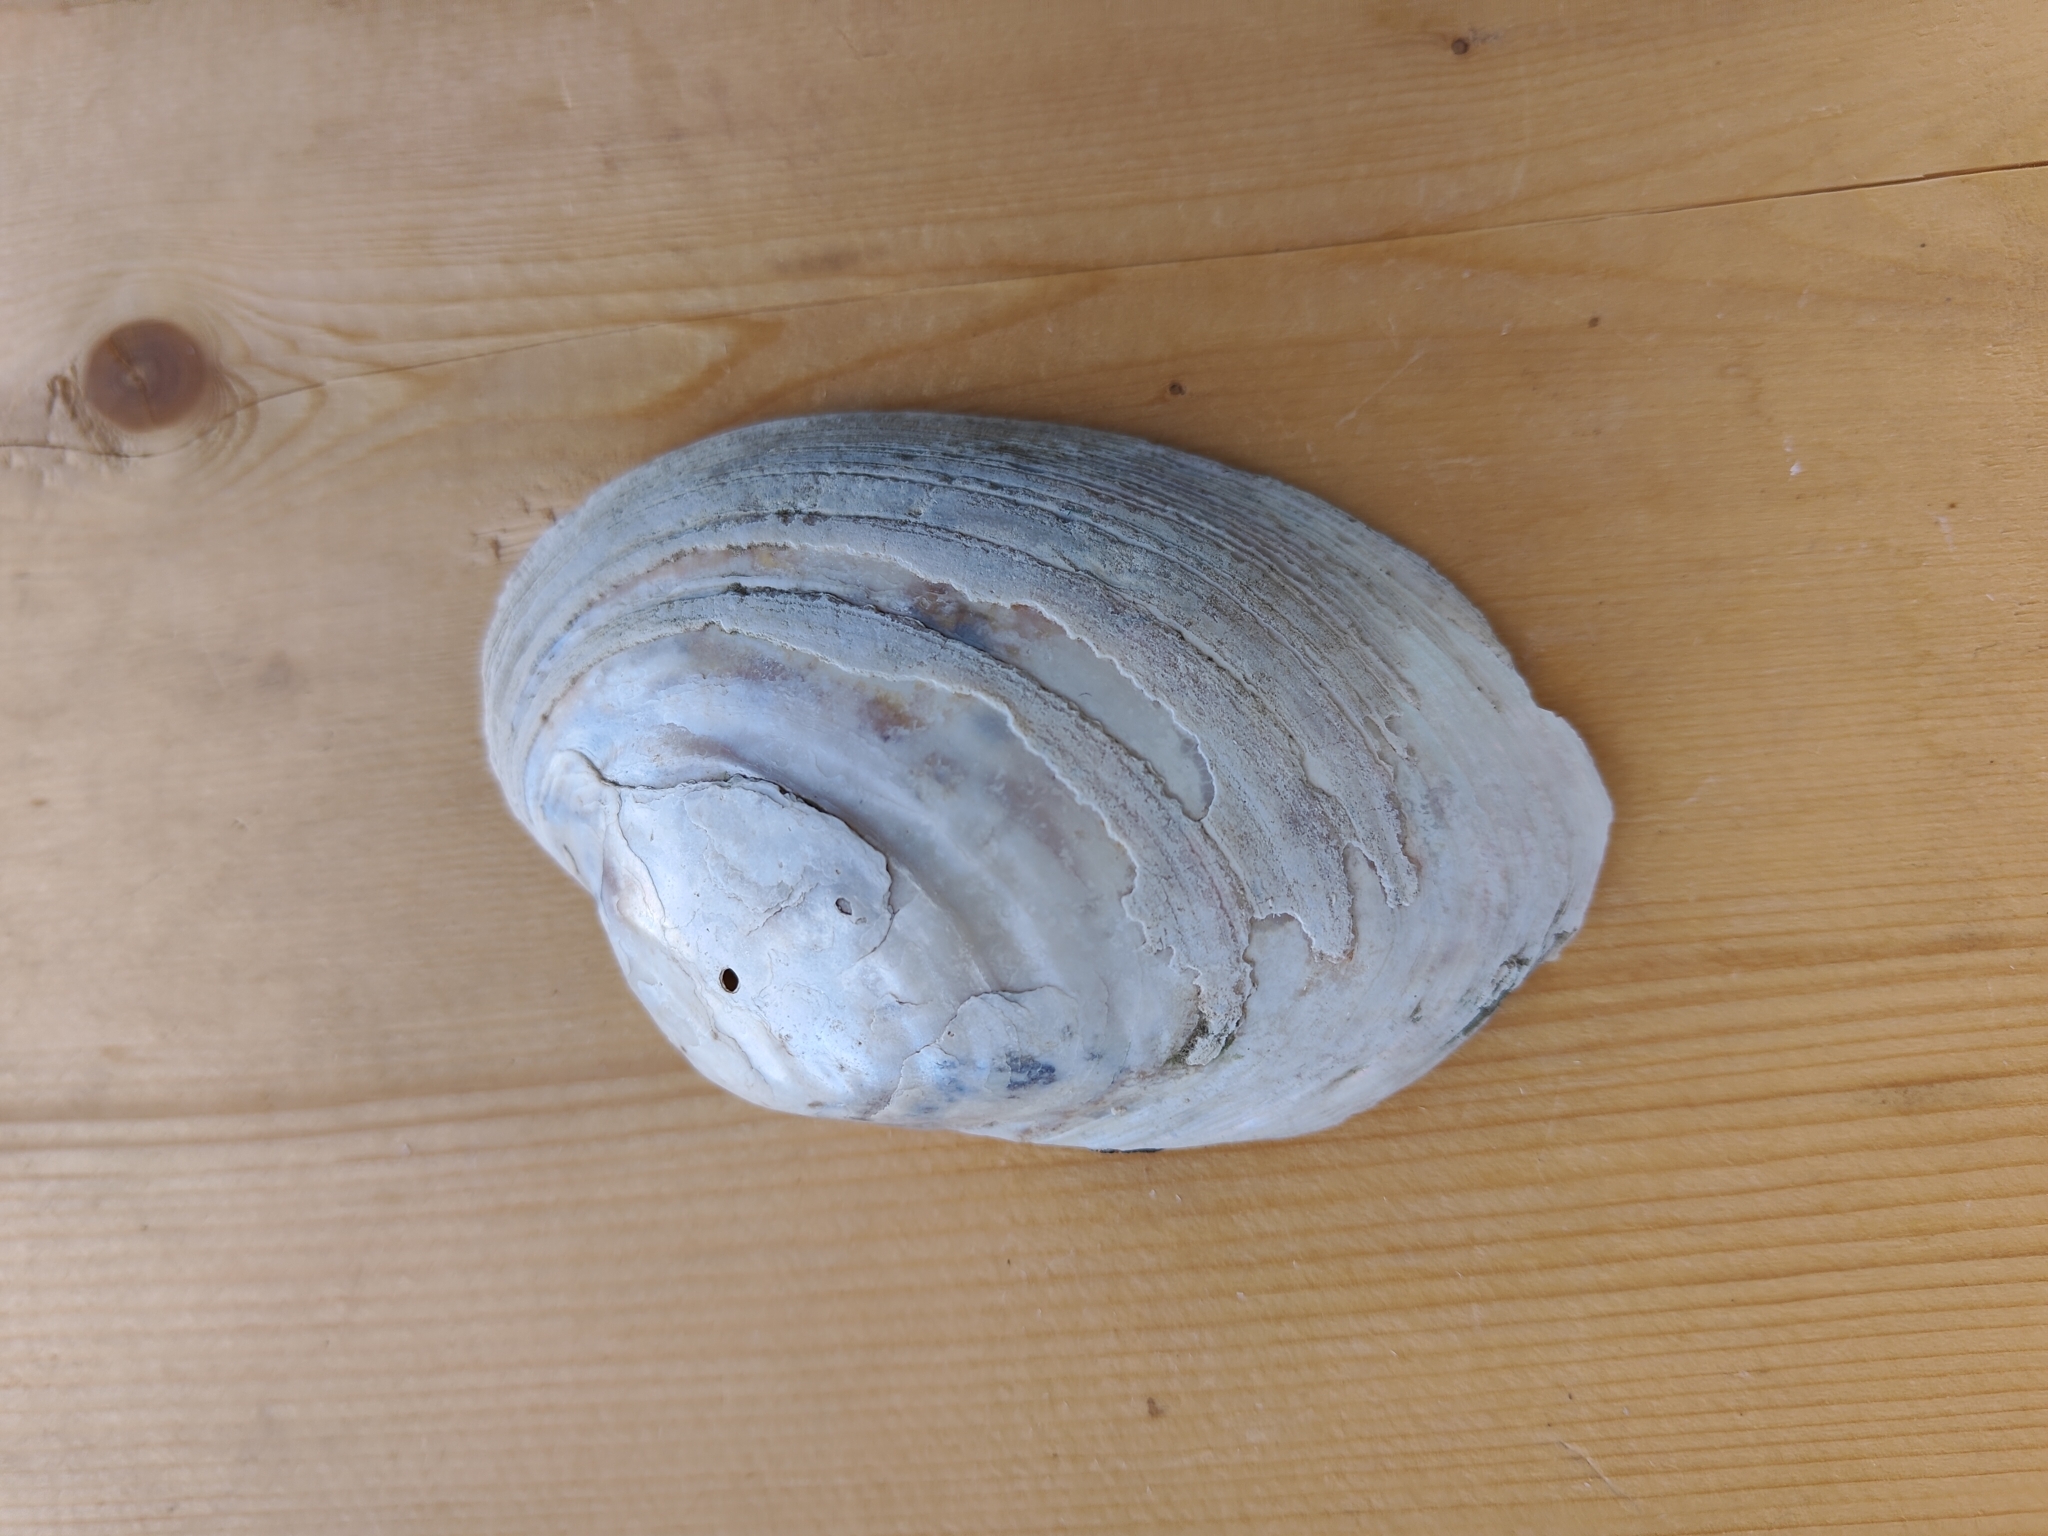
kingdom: Animalia
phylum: Mollusca
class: Bivalvia
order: Unionida
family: Unionidae
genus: Lampsilis
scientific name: Lampsilis cardium
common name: Plain pocketbook
